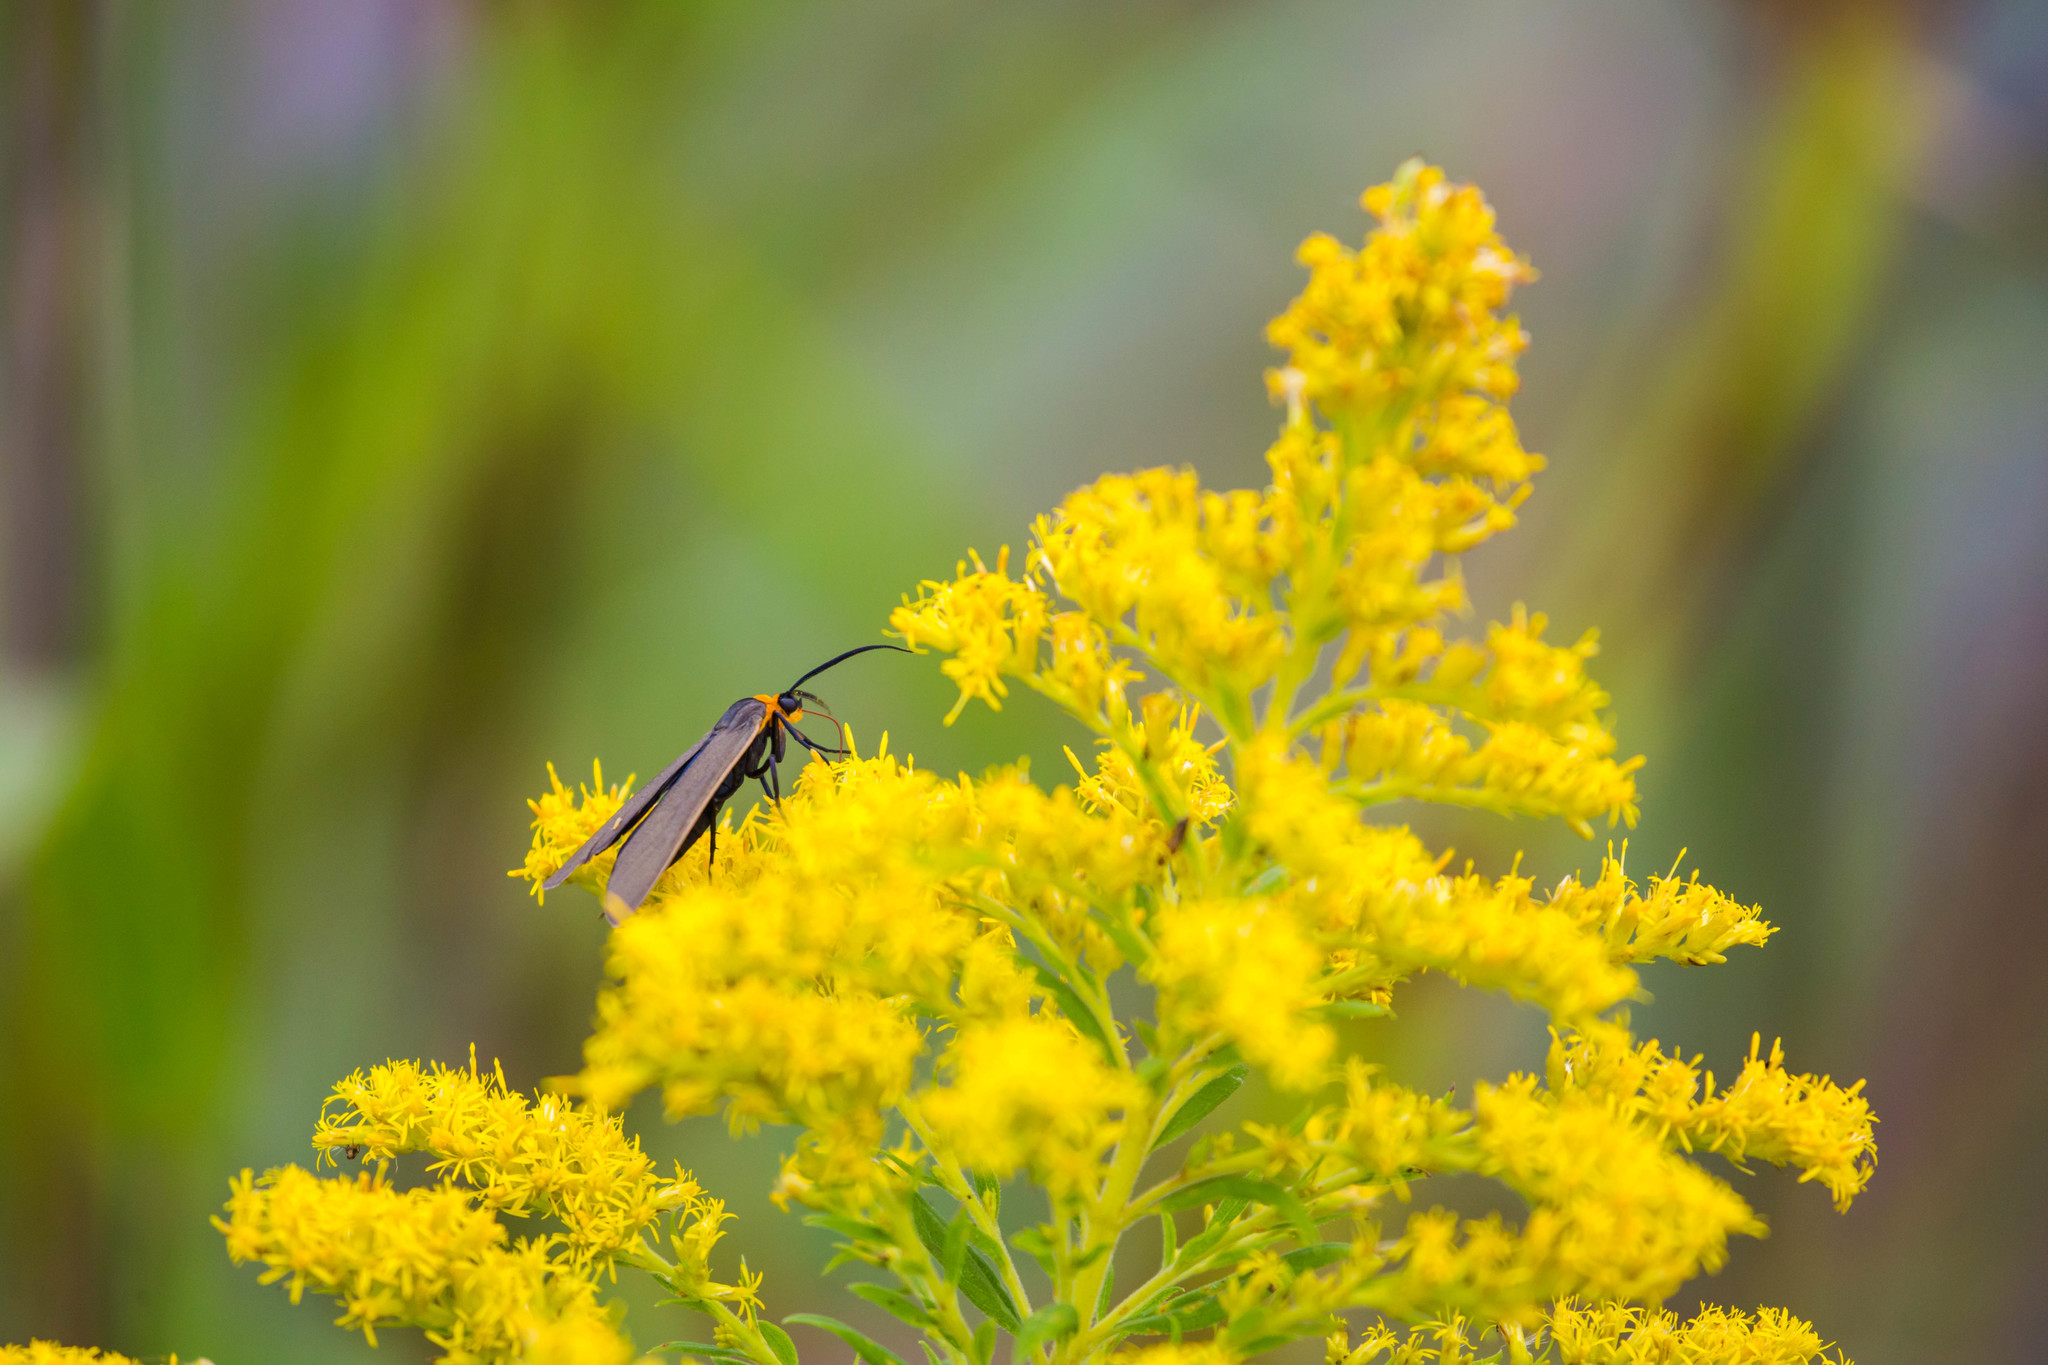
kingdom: Animalia
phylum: Arthropoda
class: Insecta
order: Lepidoptera
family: Erebidae
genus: Cisseps
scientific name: Cisseps fulvicollis
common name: Yellow-collared scape moth
